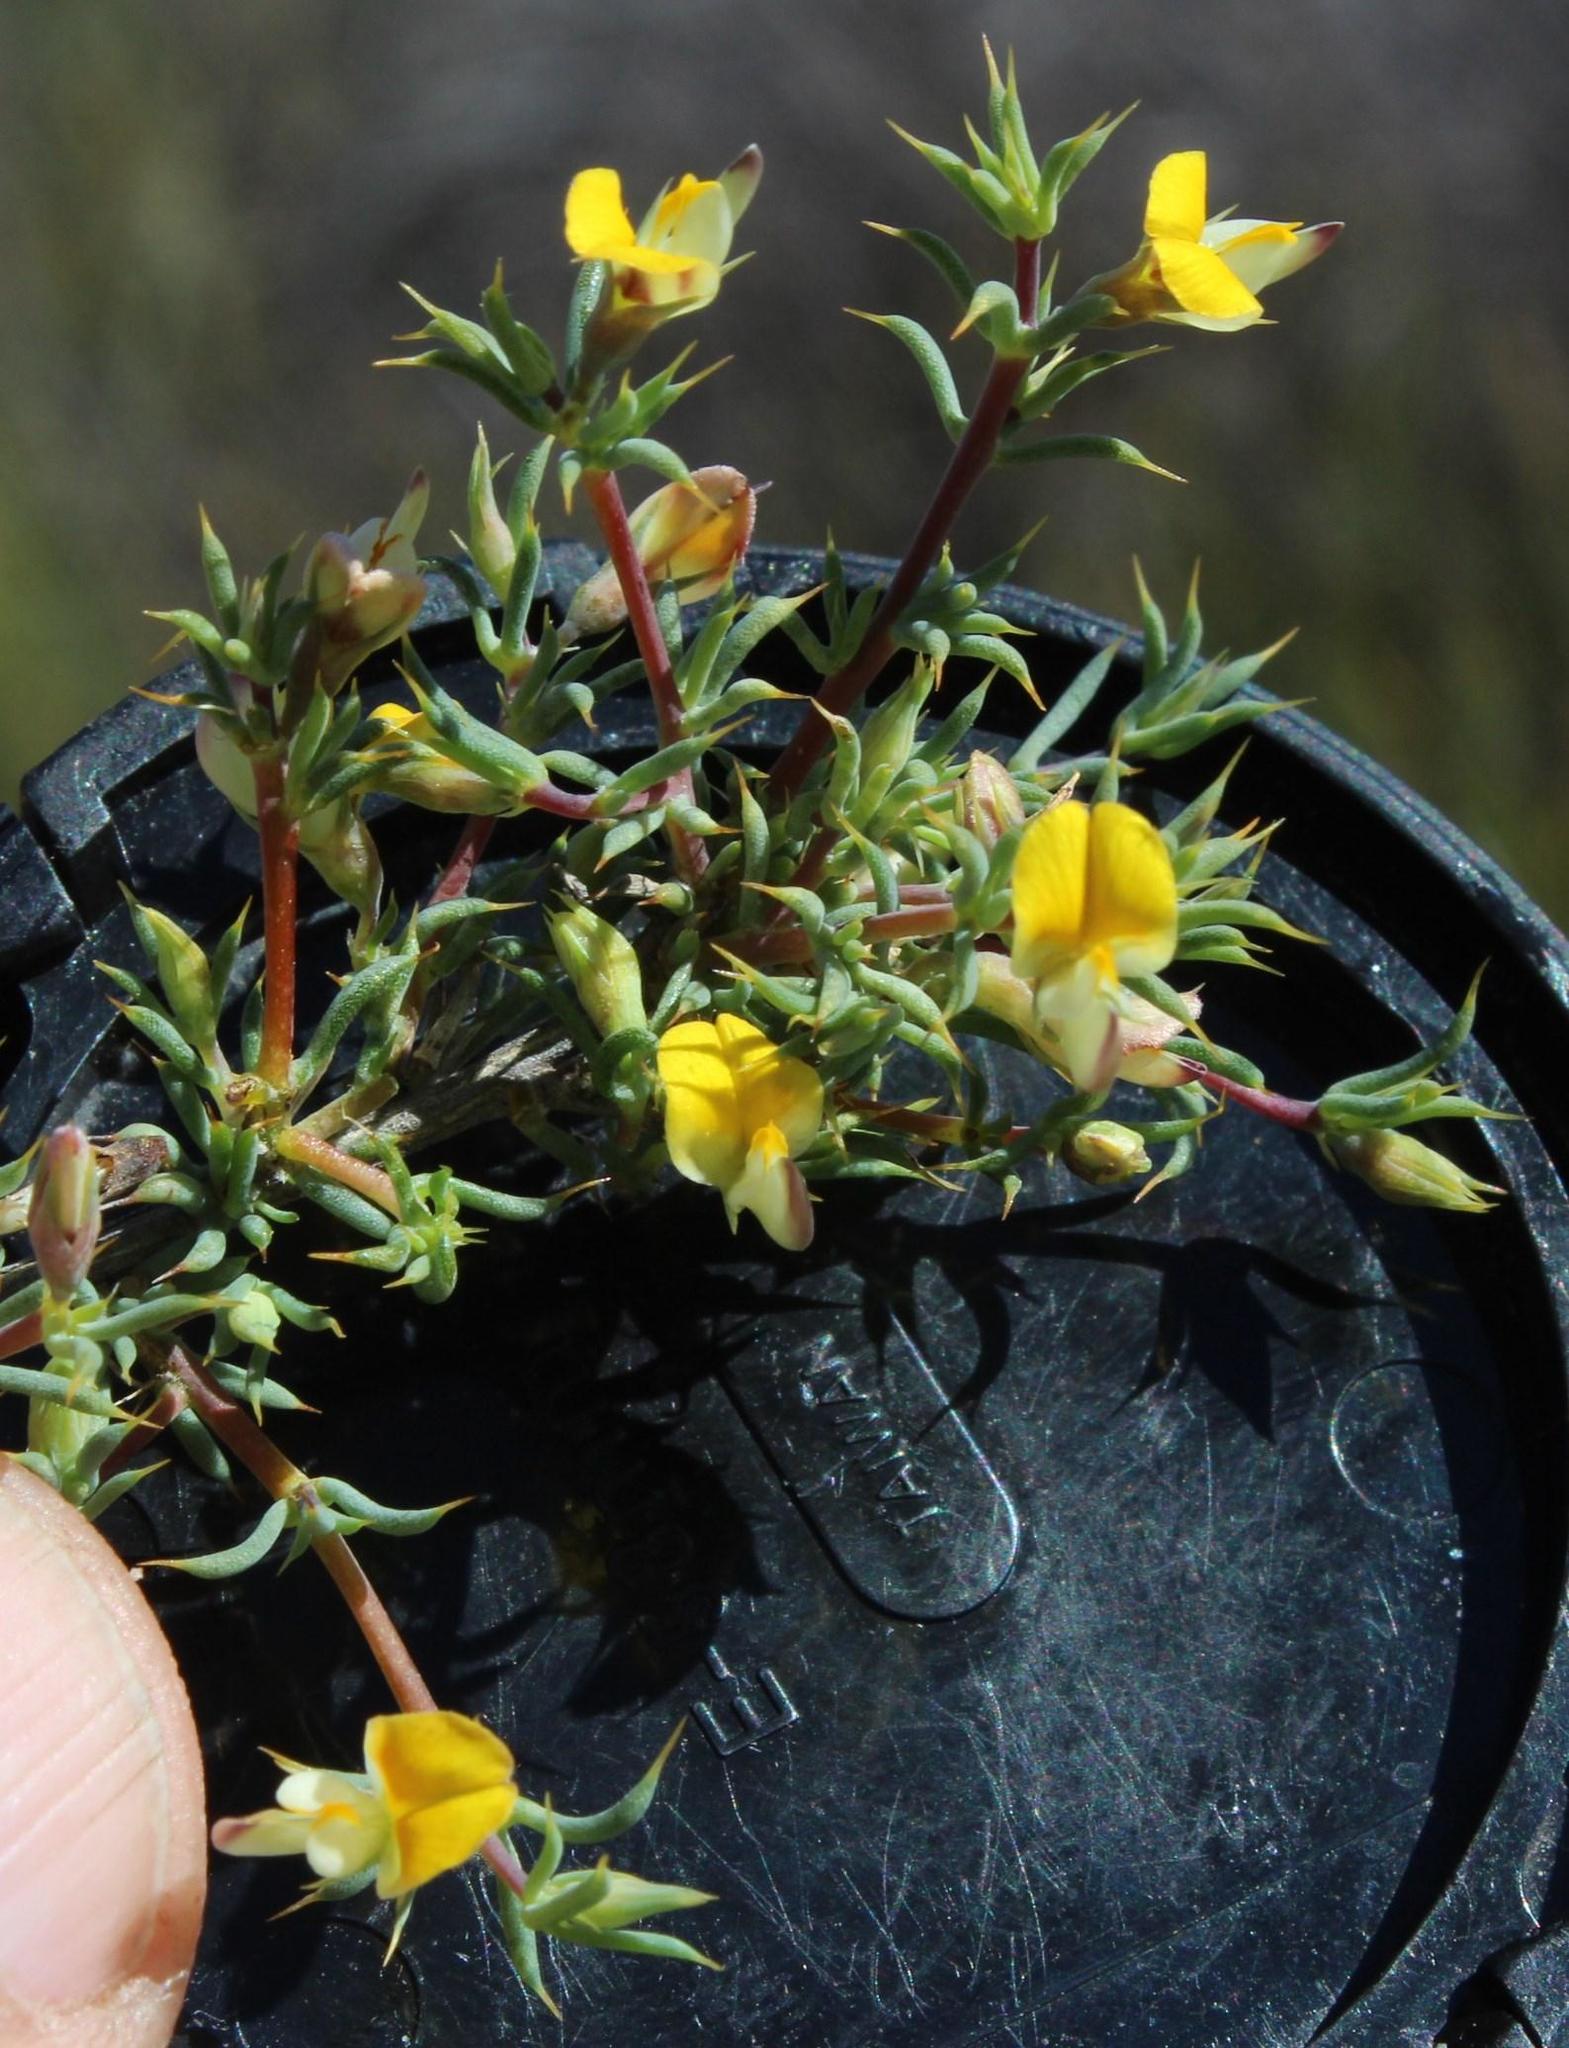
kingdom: Plantae
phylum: Tracheophyta
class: Magnoliopsida
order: Fabales
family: Fabaceae
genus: Aspalathus
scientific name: Aspalathus aristata
